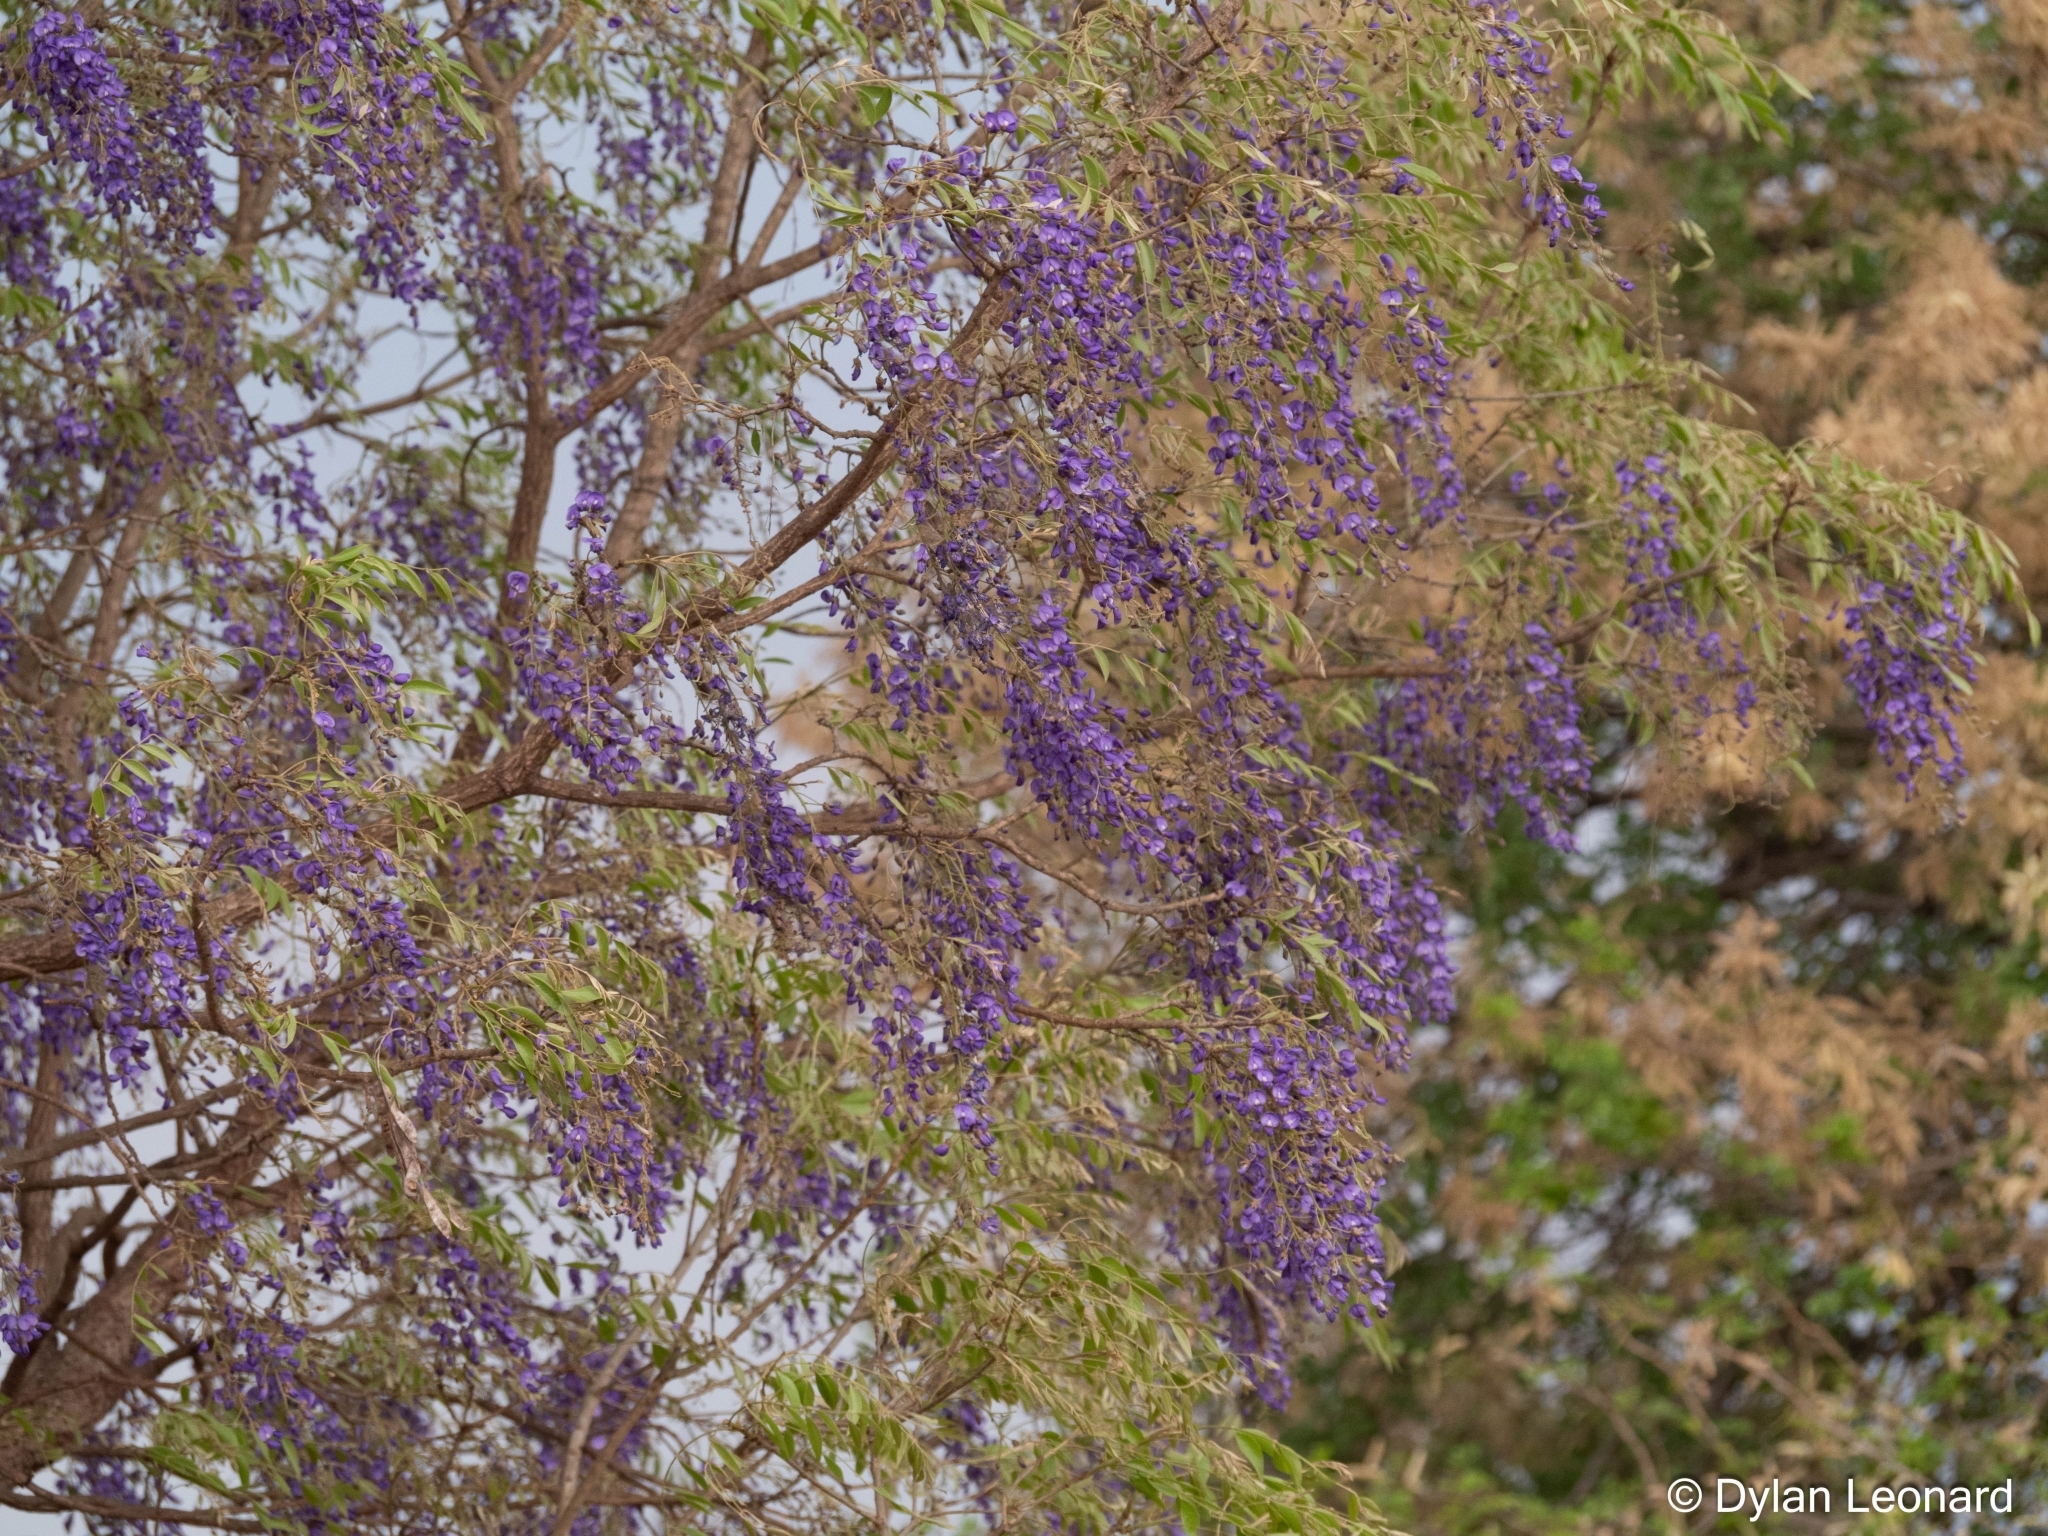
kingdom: Plantae
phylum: Tracheophyta
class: Magnoliopsida
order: Fabales
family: Fabaceae
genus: Bolusanthus
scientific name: Bolusanthus speciosus
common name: Tree wisteria
